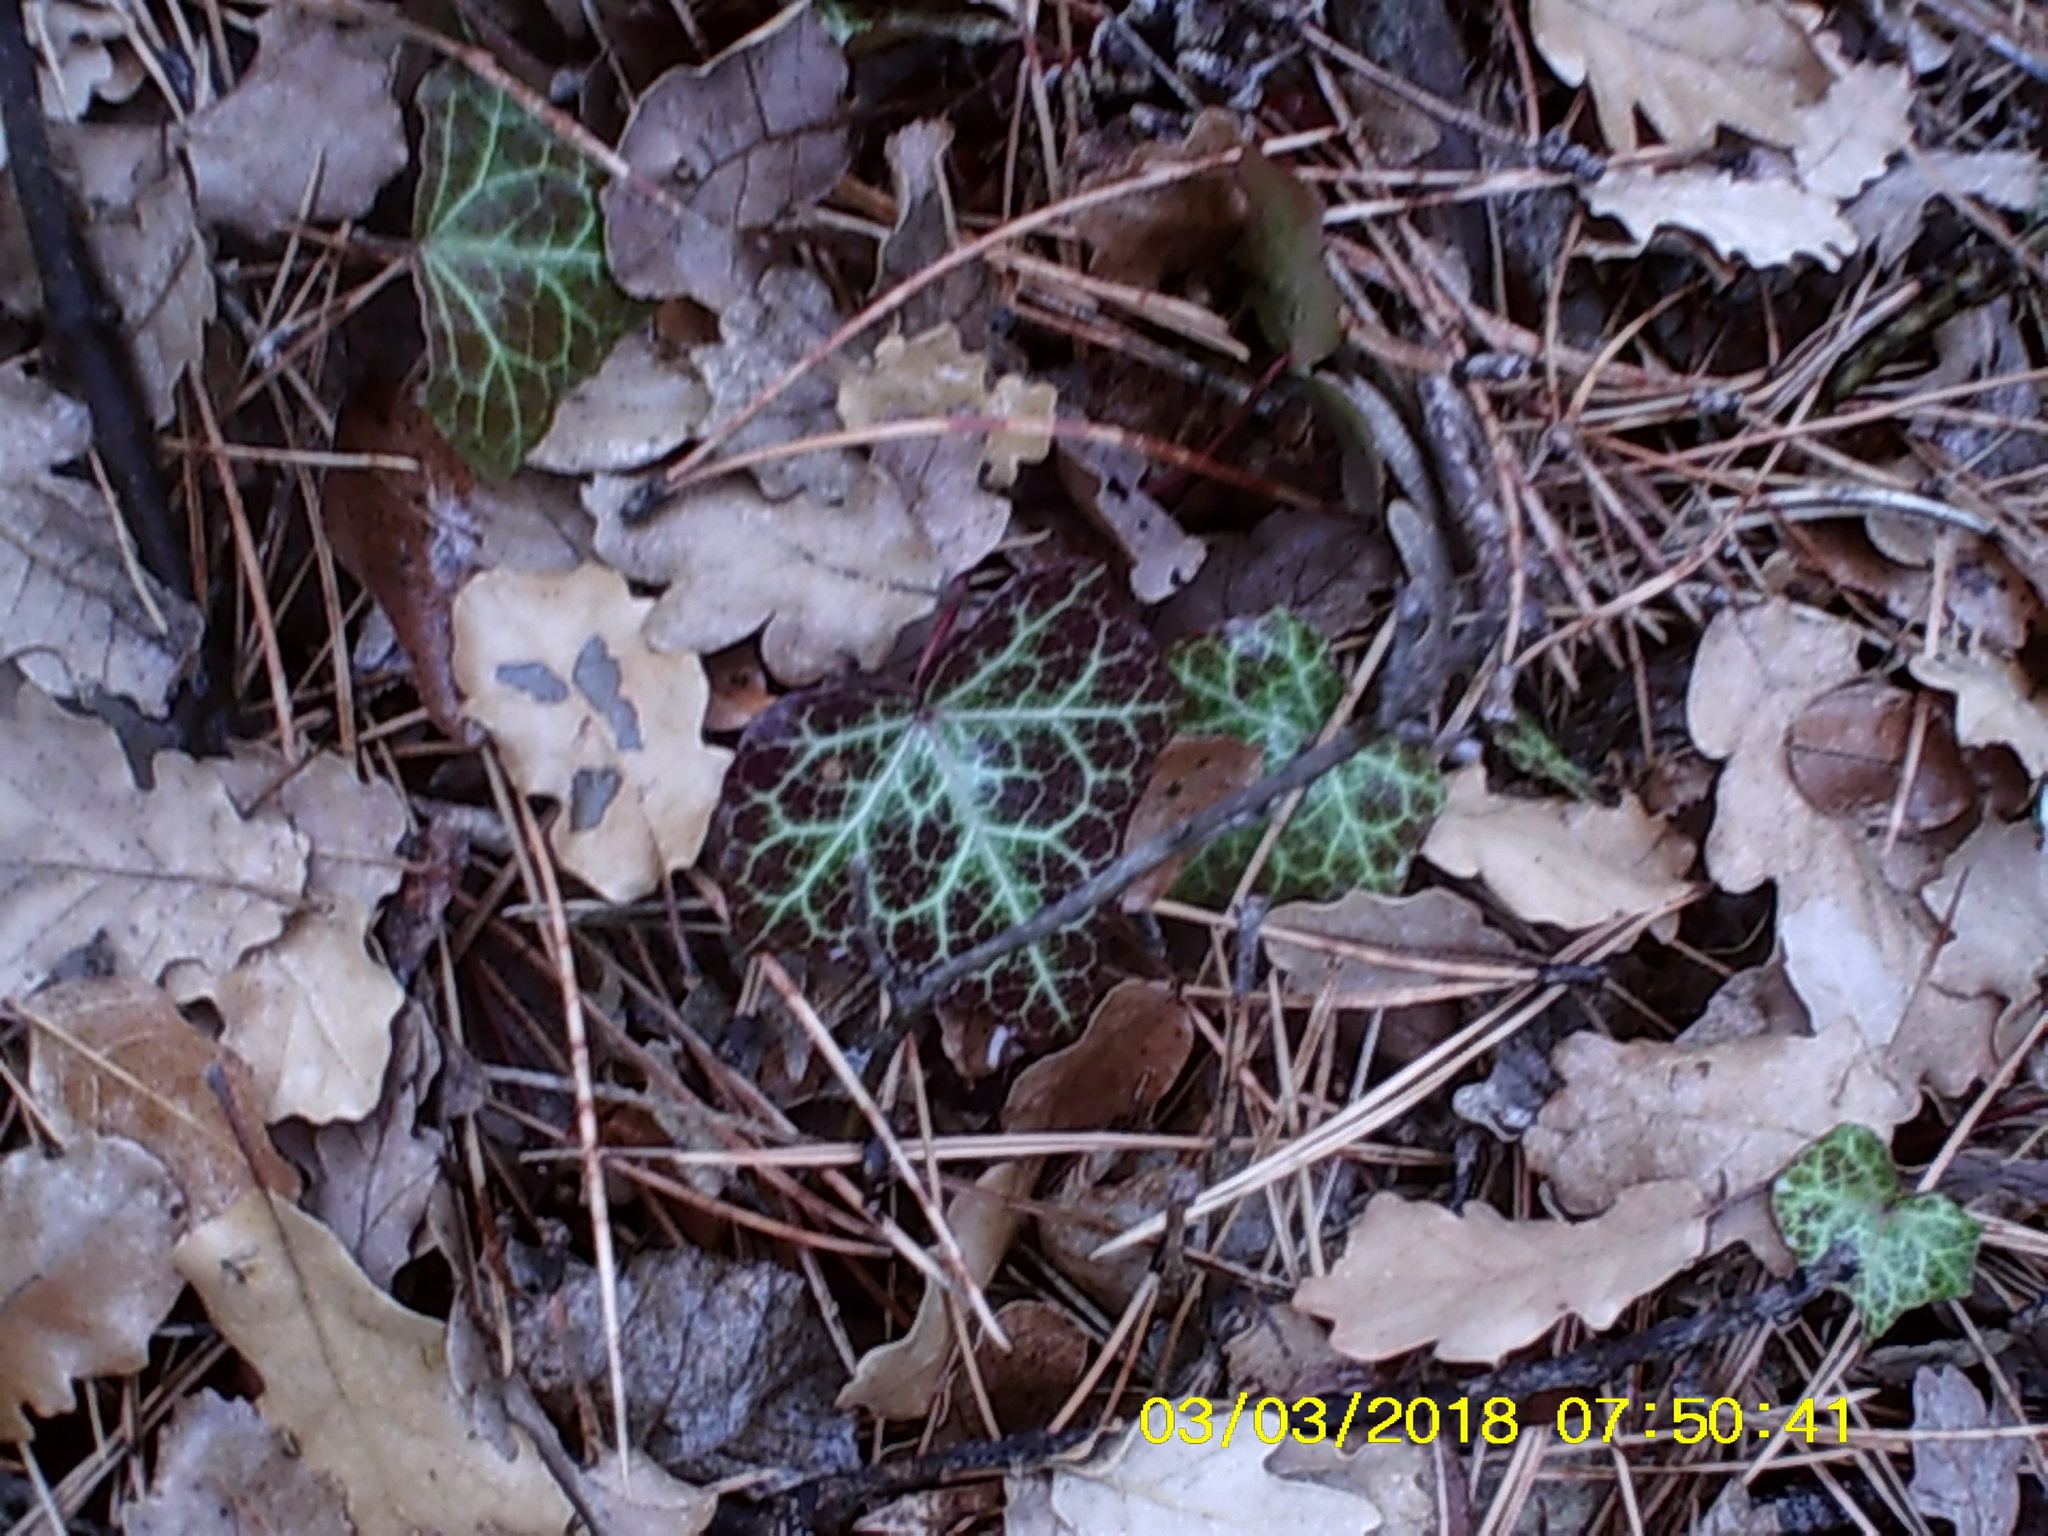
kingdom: Plantae
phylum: Tracheophyta
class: Magnoliopsida
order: Apiales
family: Araliaceae
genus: Hedera
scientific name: Hedera helix
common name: Ivy
